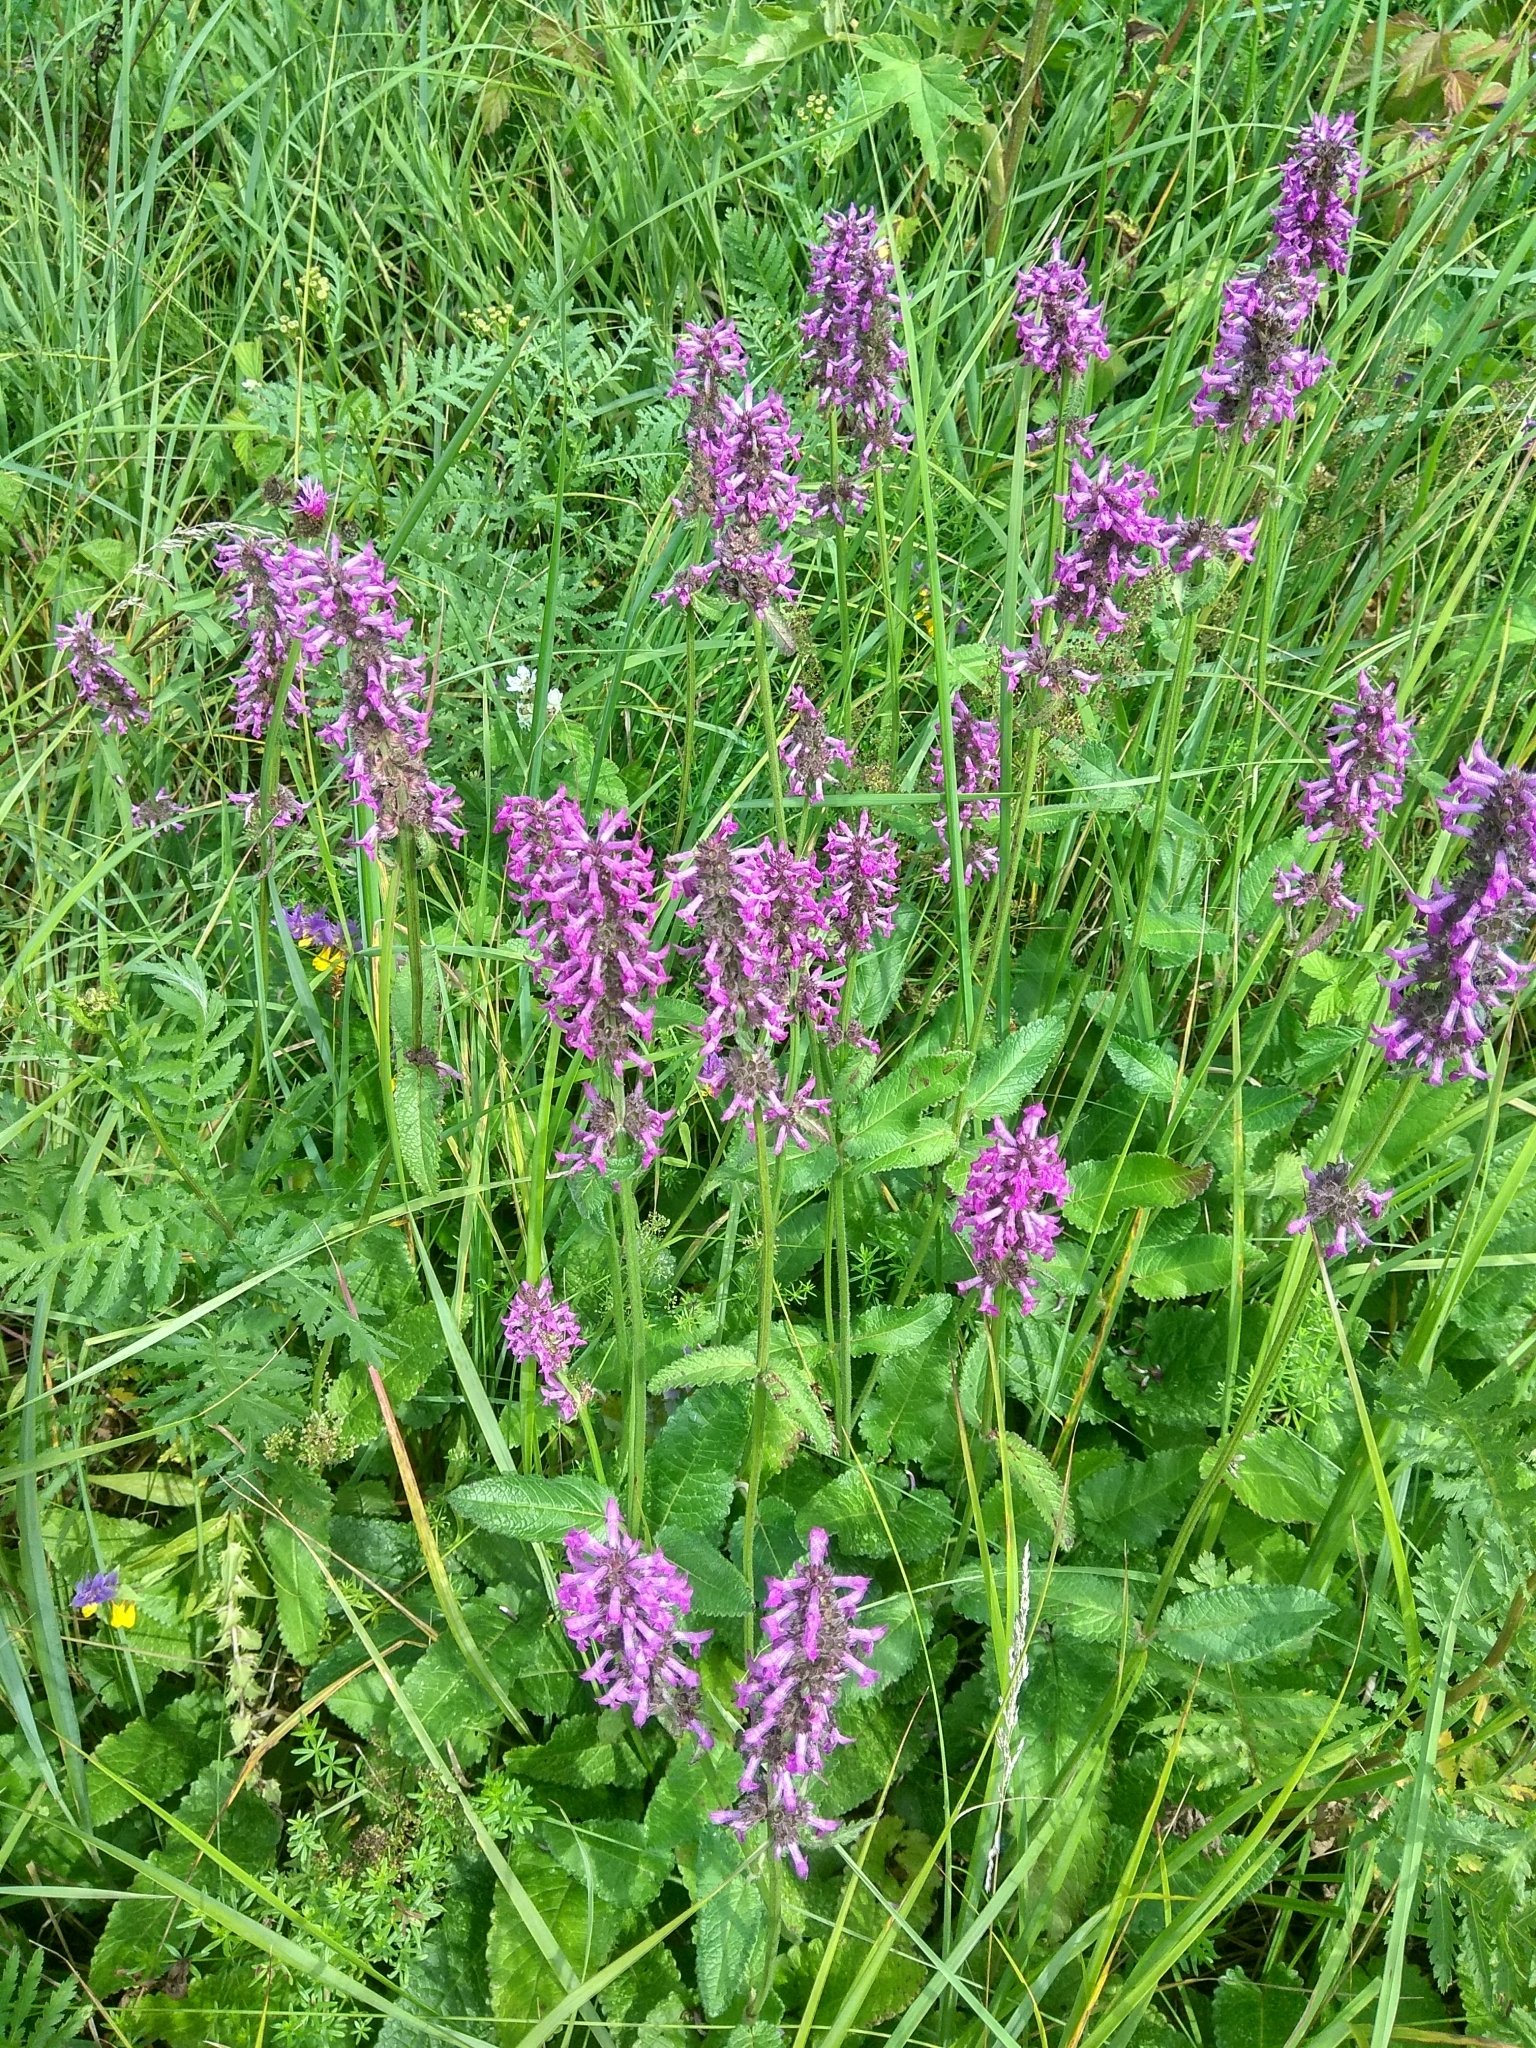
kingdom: Plantae
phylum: Tracheophyta
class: Magnoliopsida
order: Lamiales
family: Lamiaceae
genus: Betonica
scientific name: Betonica officinalis
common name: Bishop's-wort
